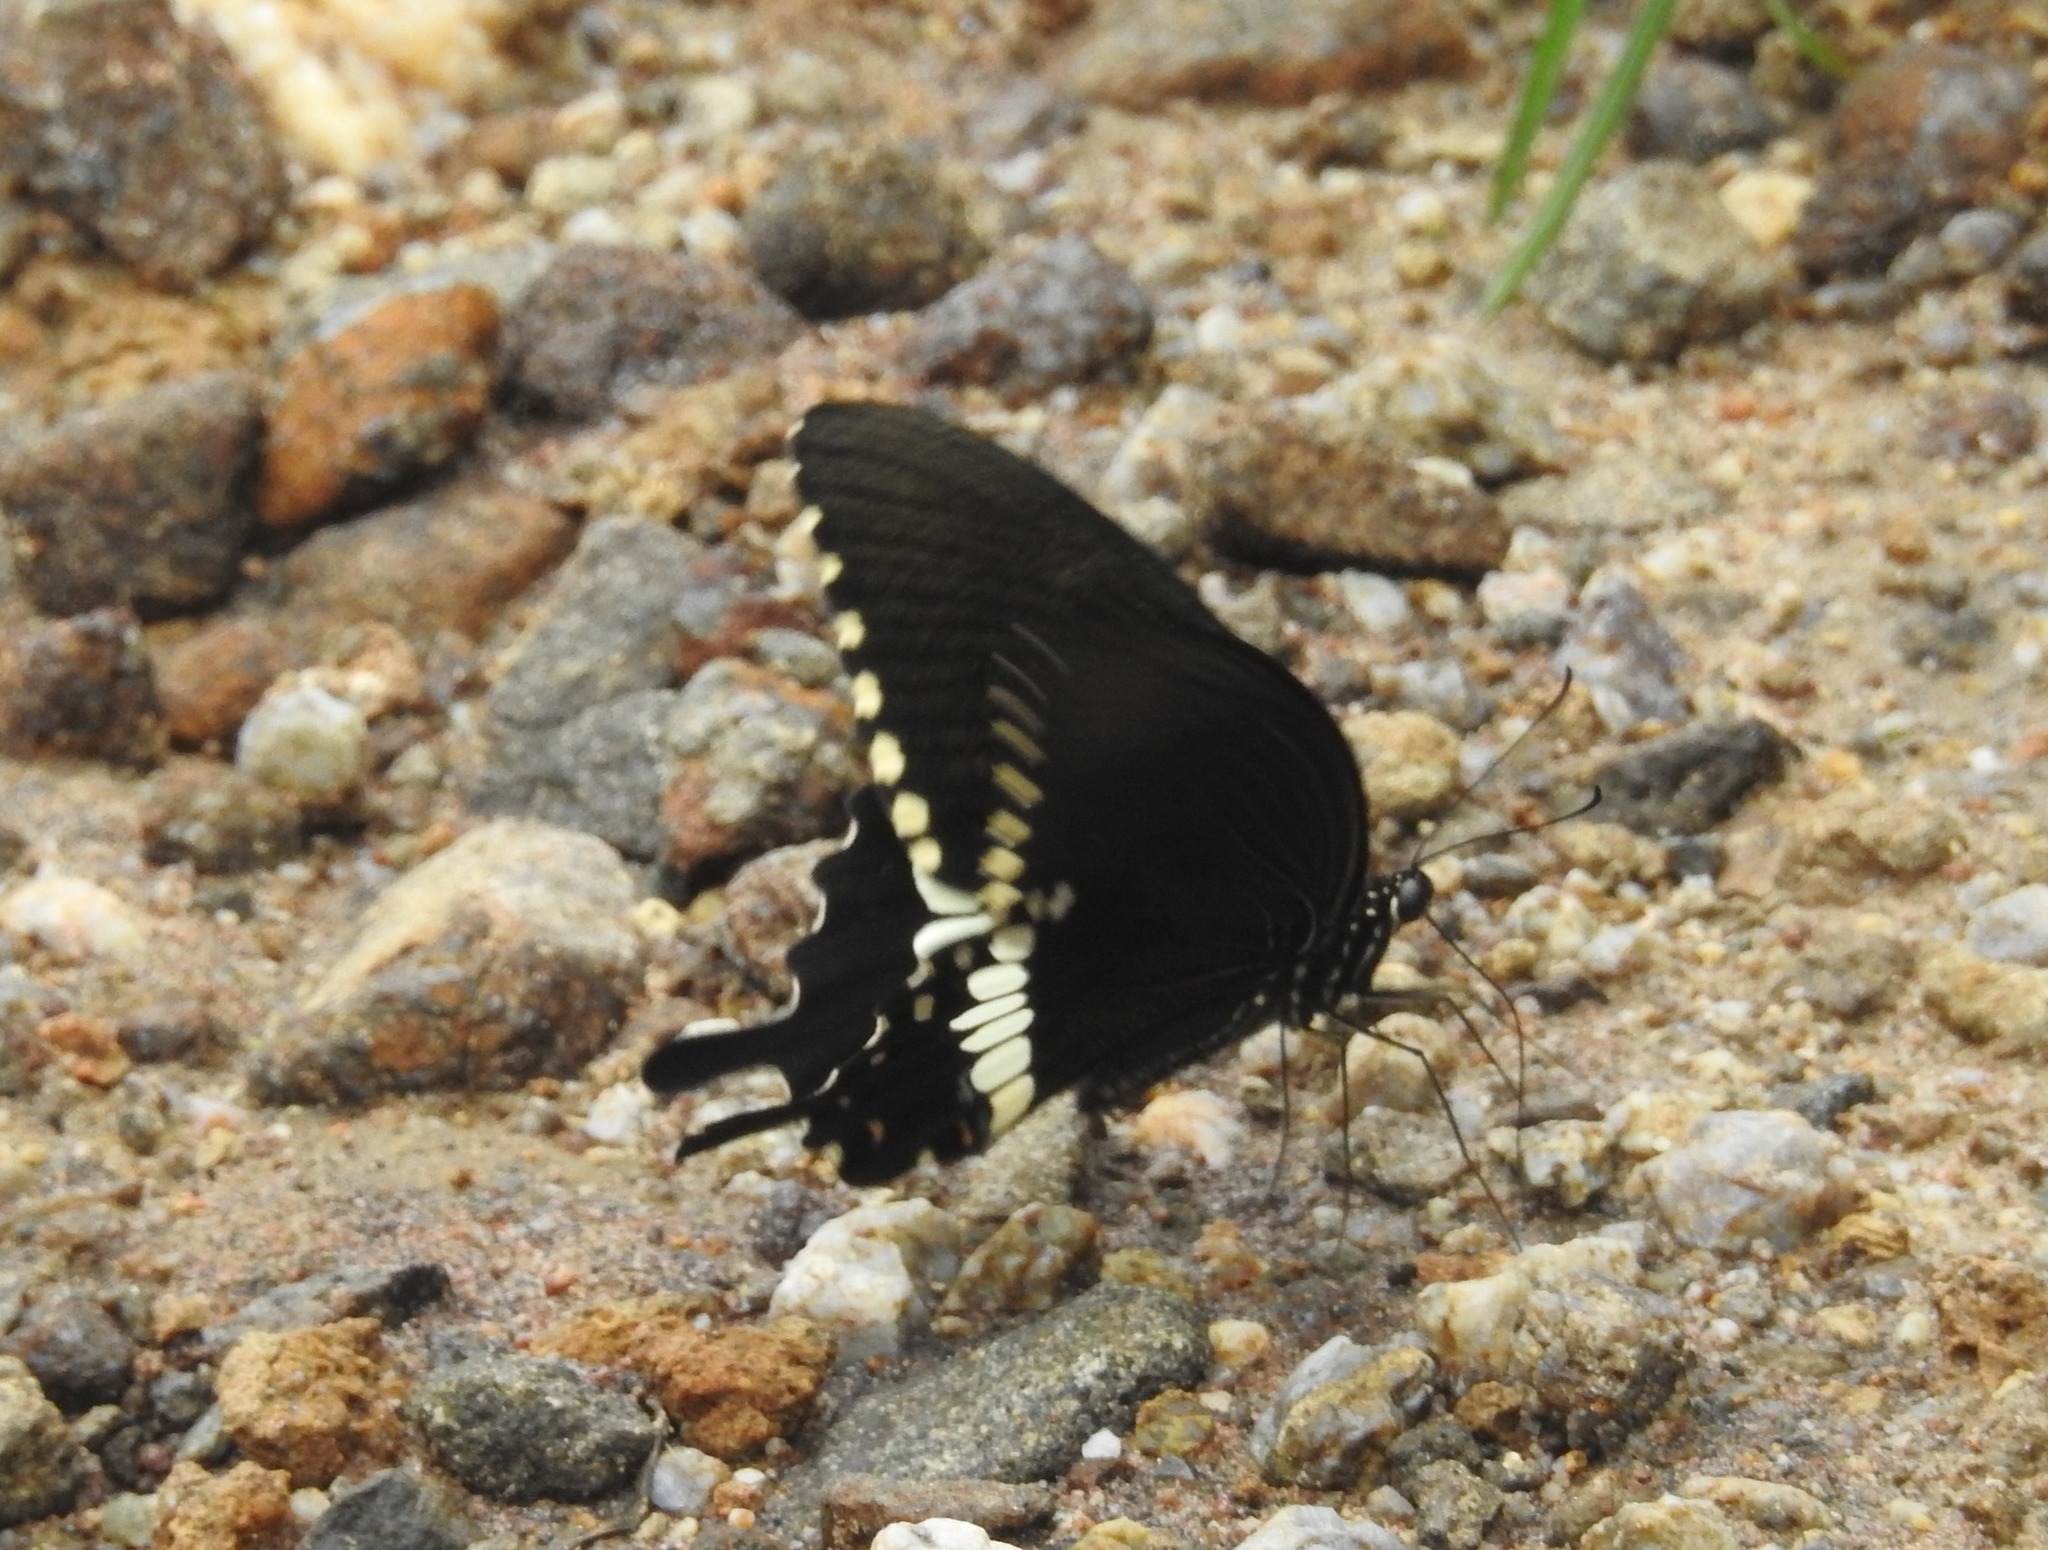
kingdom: Animalia
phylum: Arthropoda
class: Insecta
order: Lepidoptera
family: Papilionidae
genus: Papilio
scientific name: Papilio polytes
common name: Common mormon
